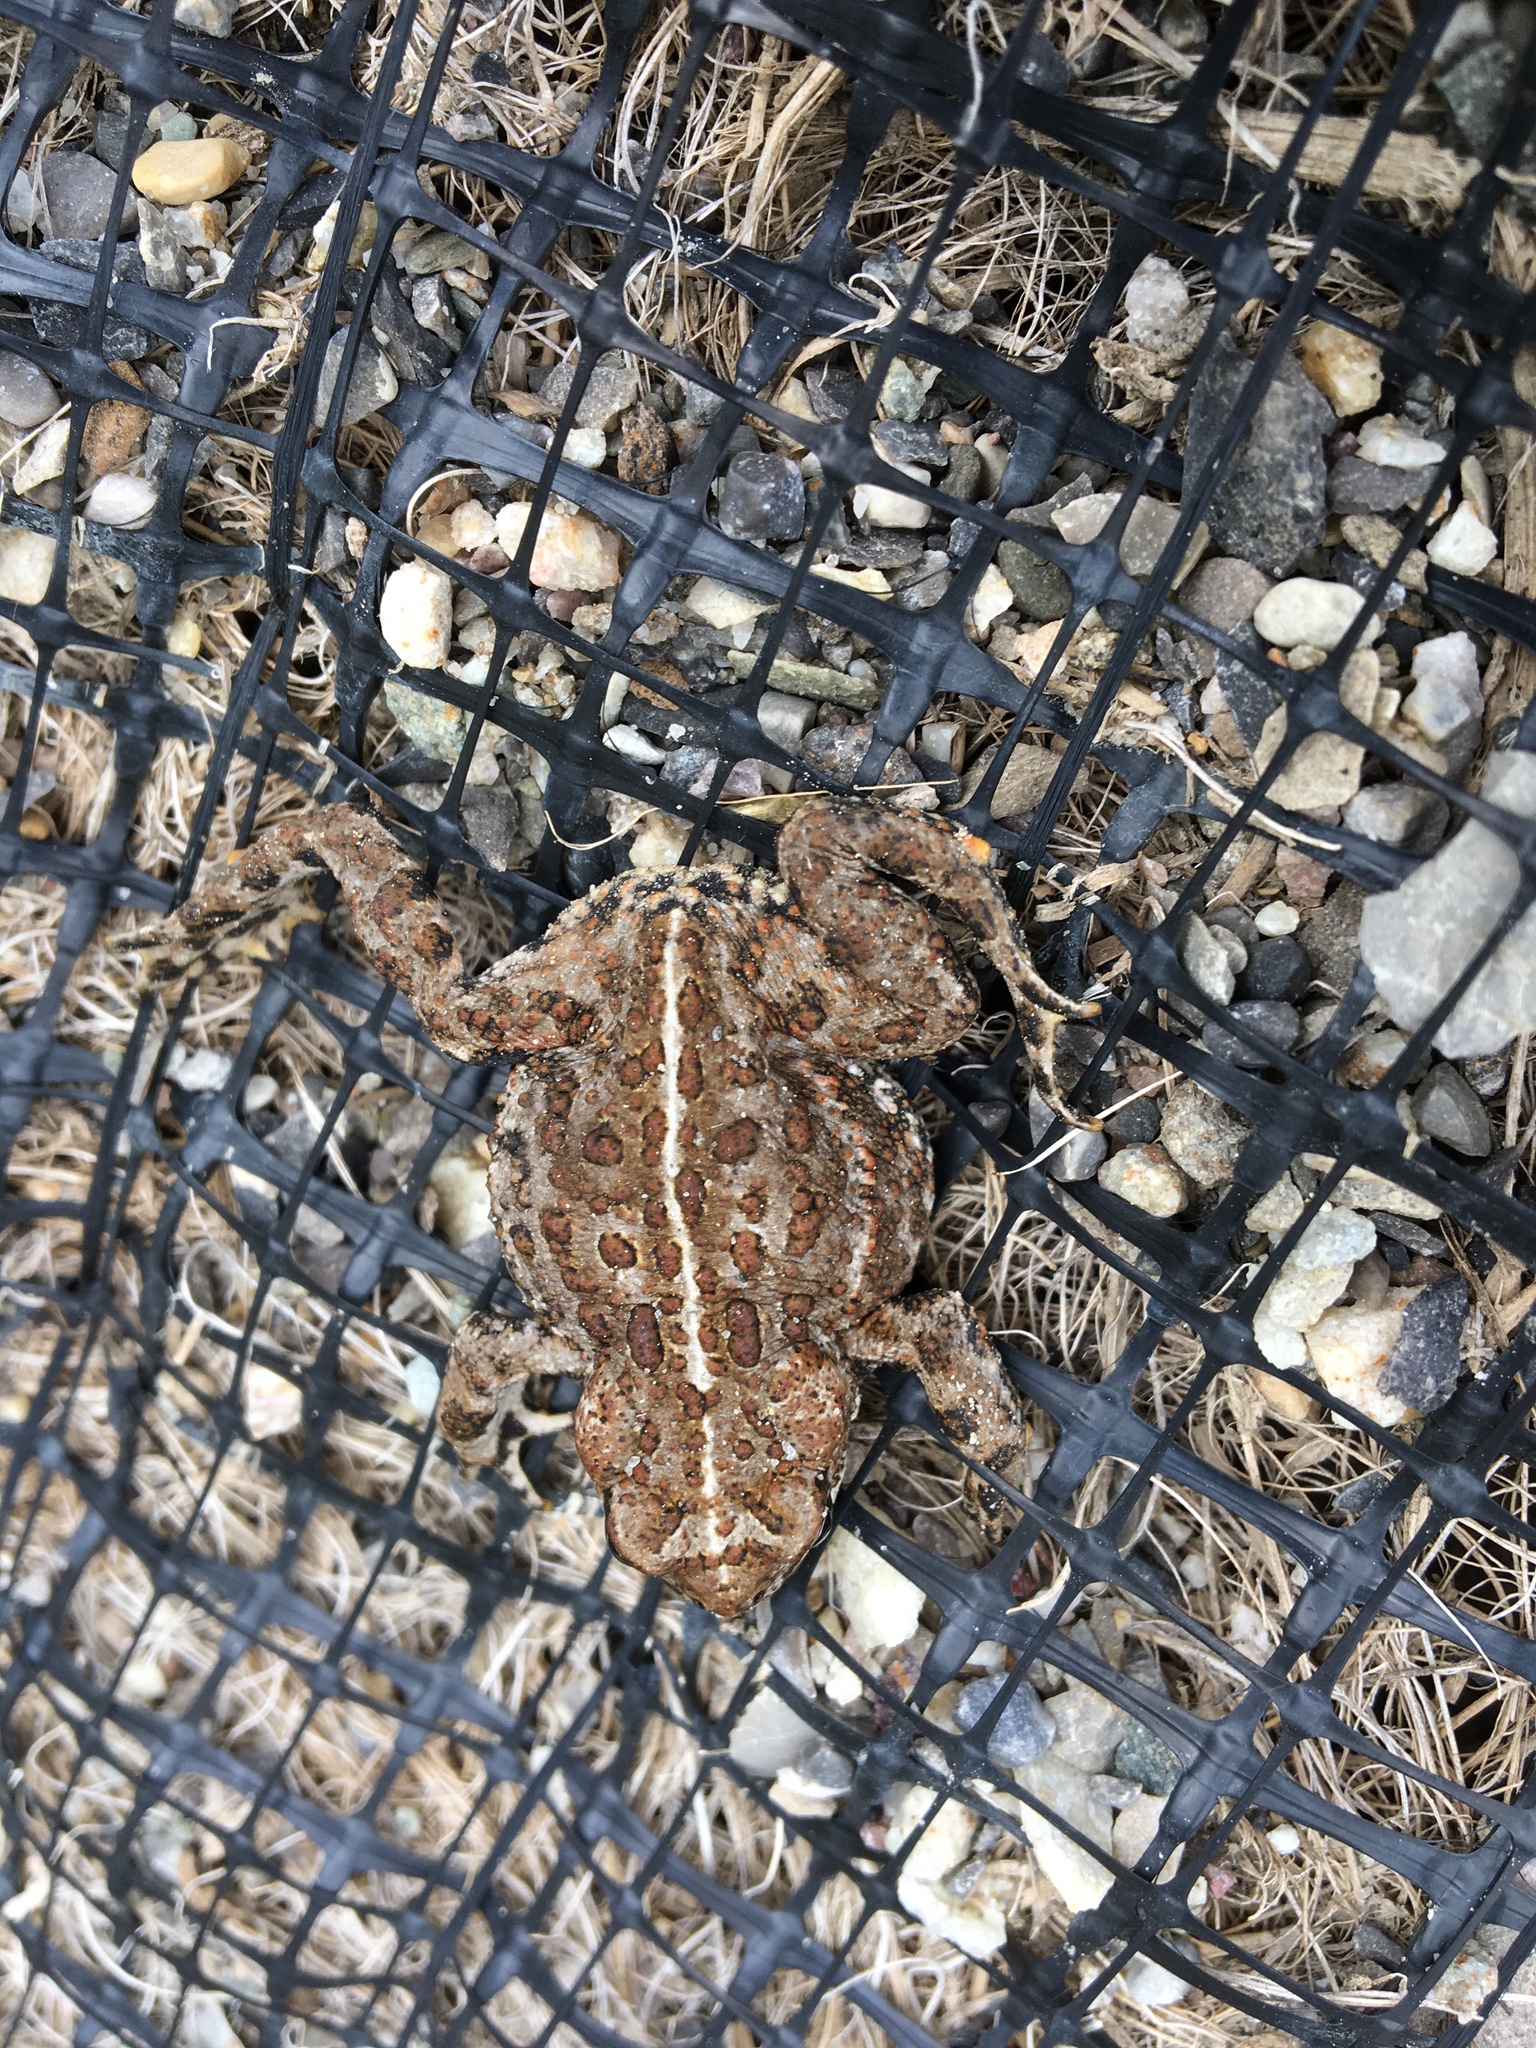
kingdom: Animalia
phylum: Chordata
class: Amphibia
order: Anura
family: Bufonidae
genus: Anaxyrus
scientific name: Anaxyrus boreas
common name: Western toad
